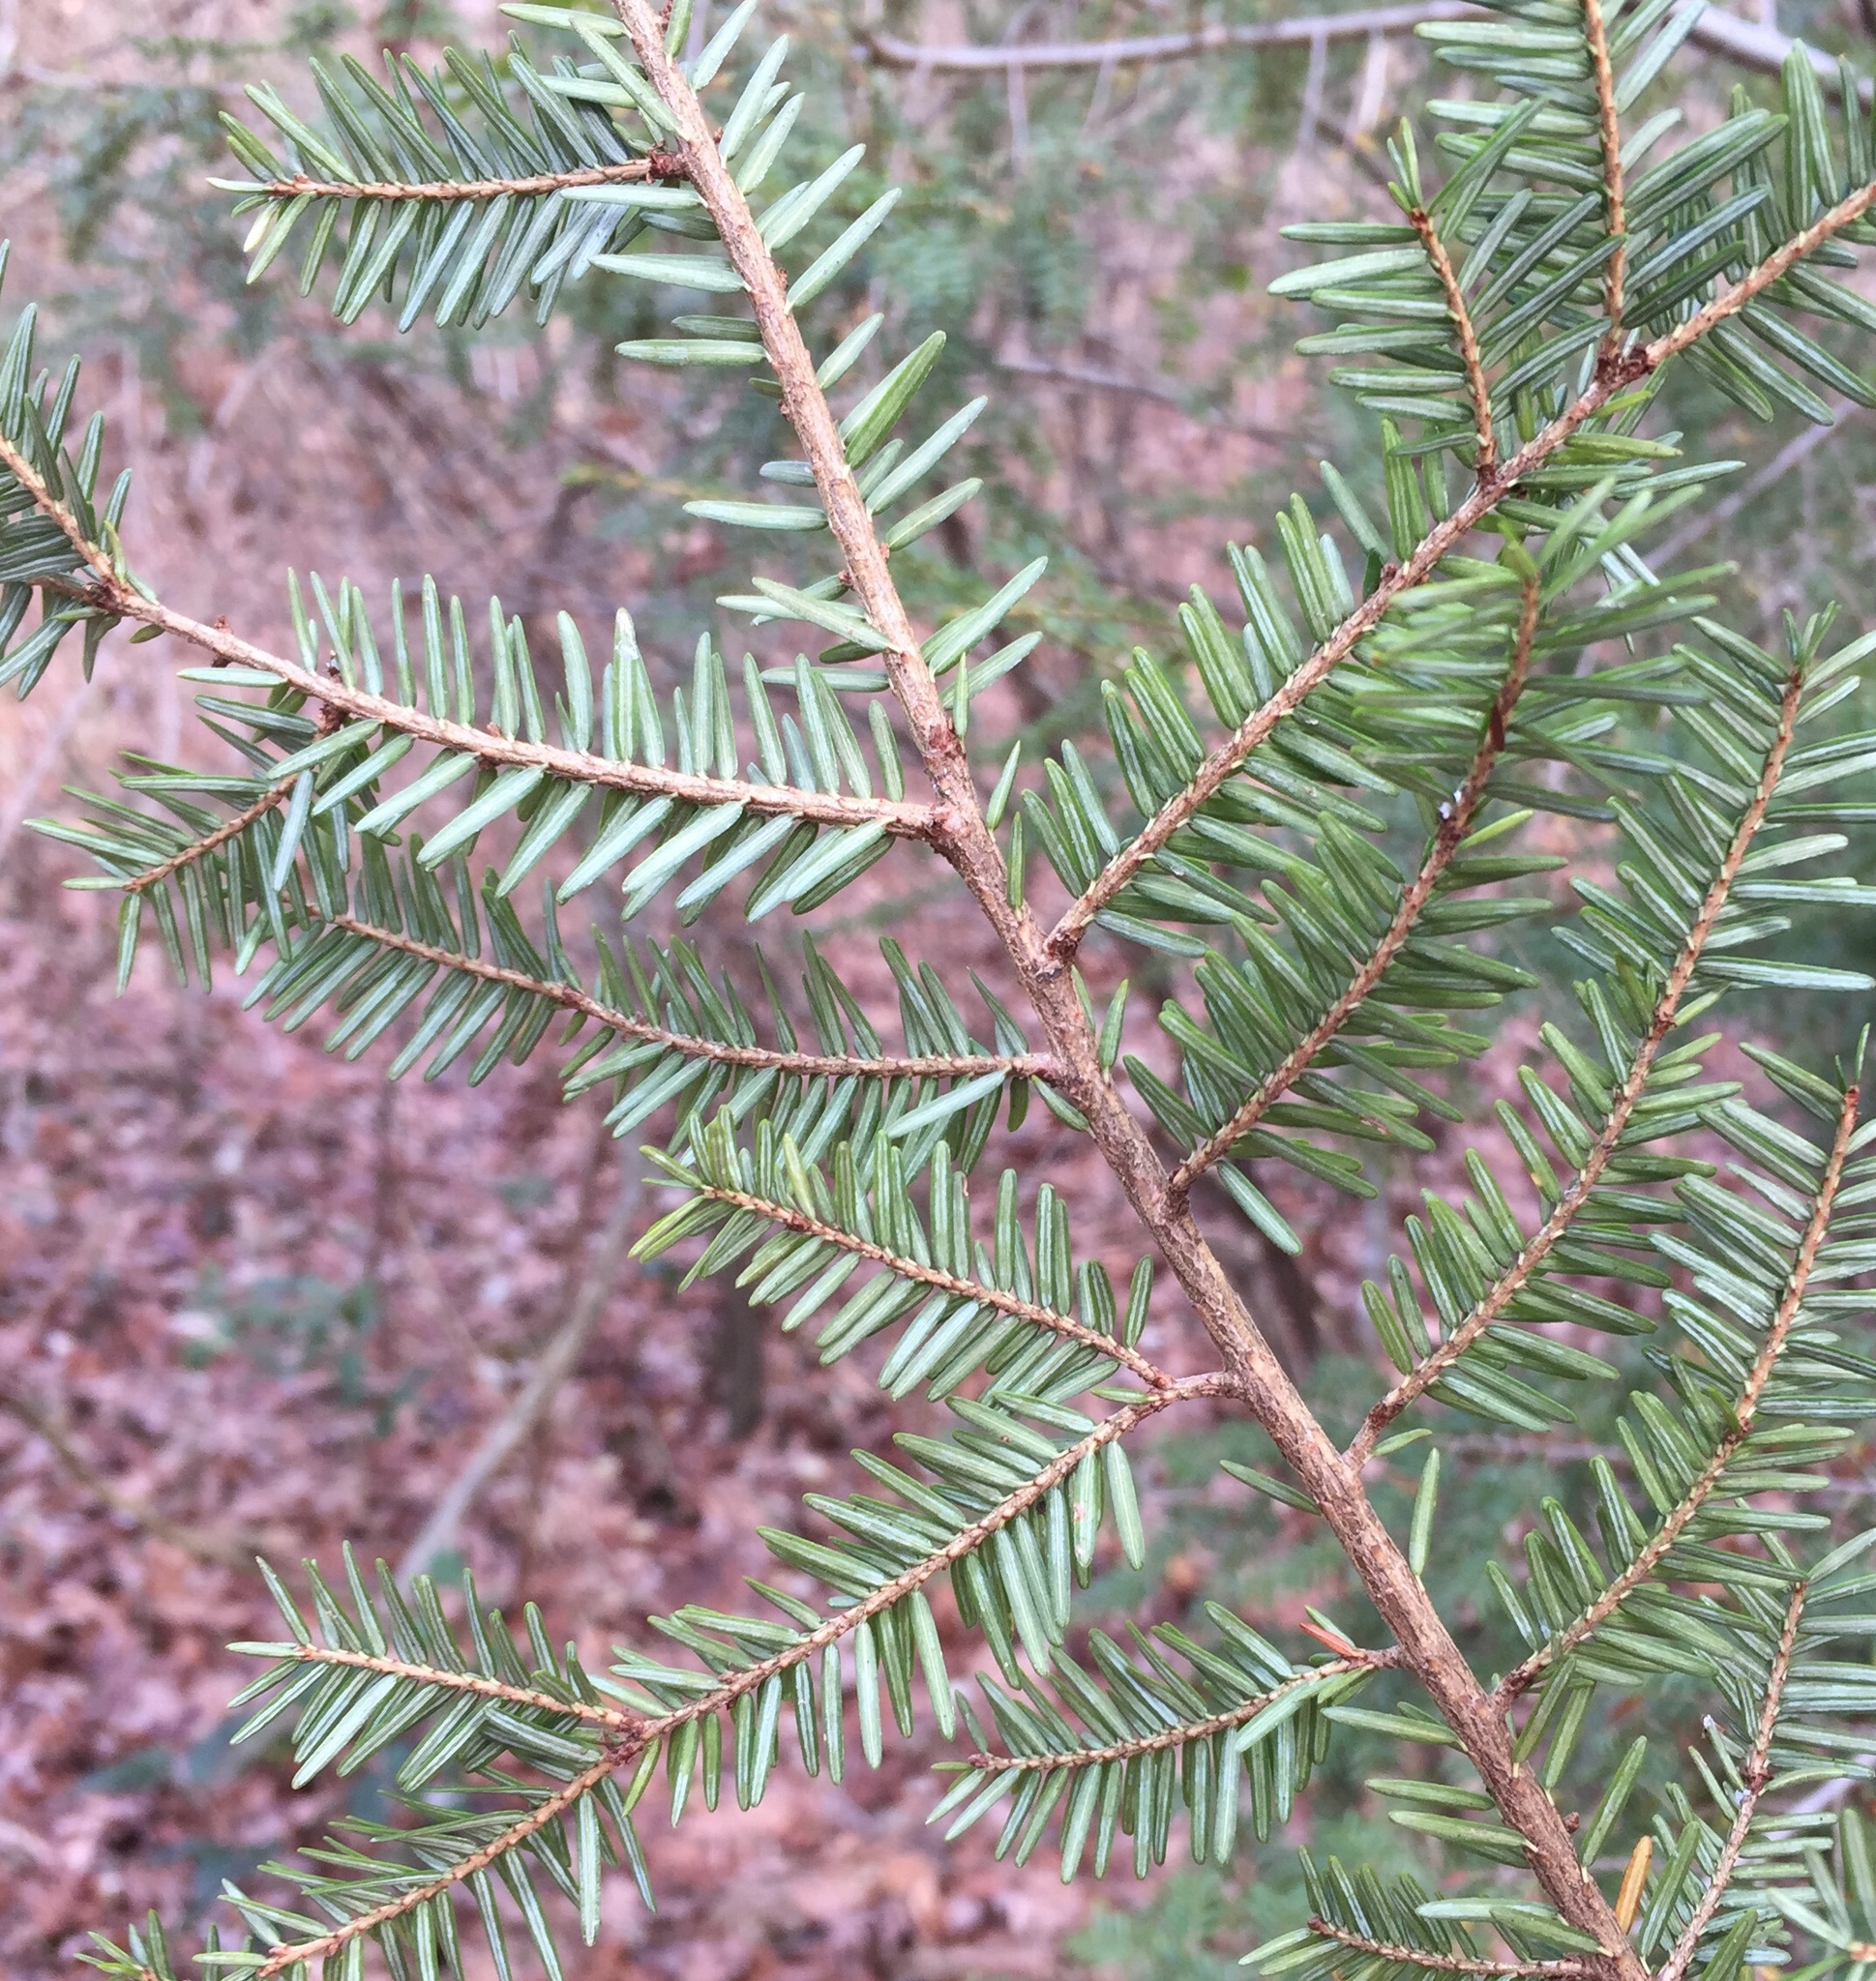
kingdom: Plantae
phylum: Tracheophyta
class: Pinopsida
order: Pinales
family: Pinaceae
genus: Tsuga
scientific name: Tsuga canadensis
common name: Eastern hemlock
